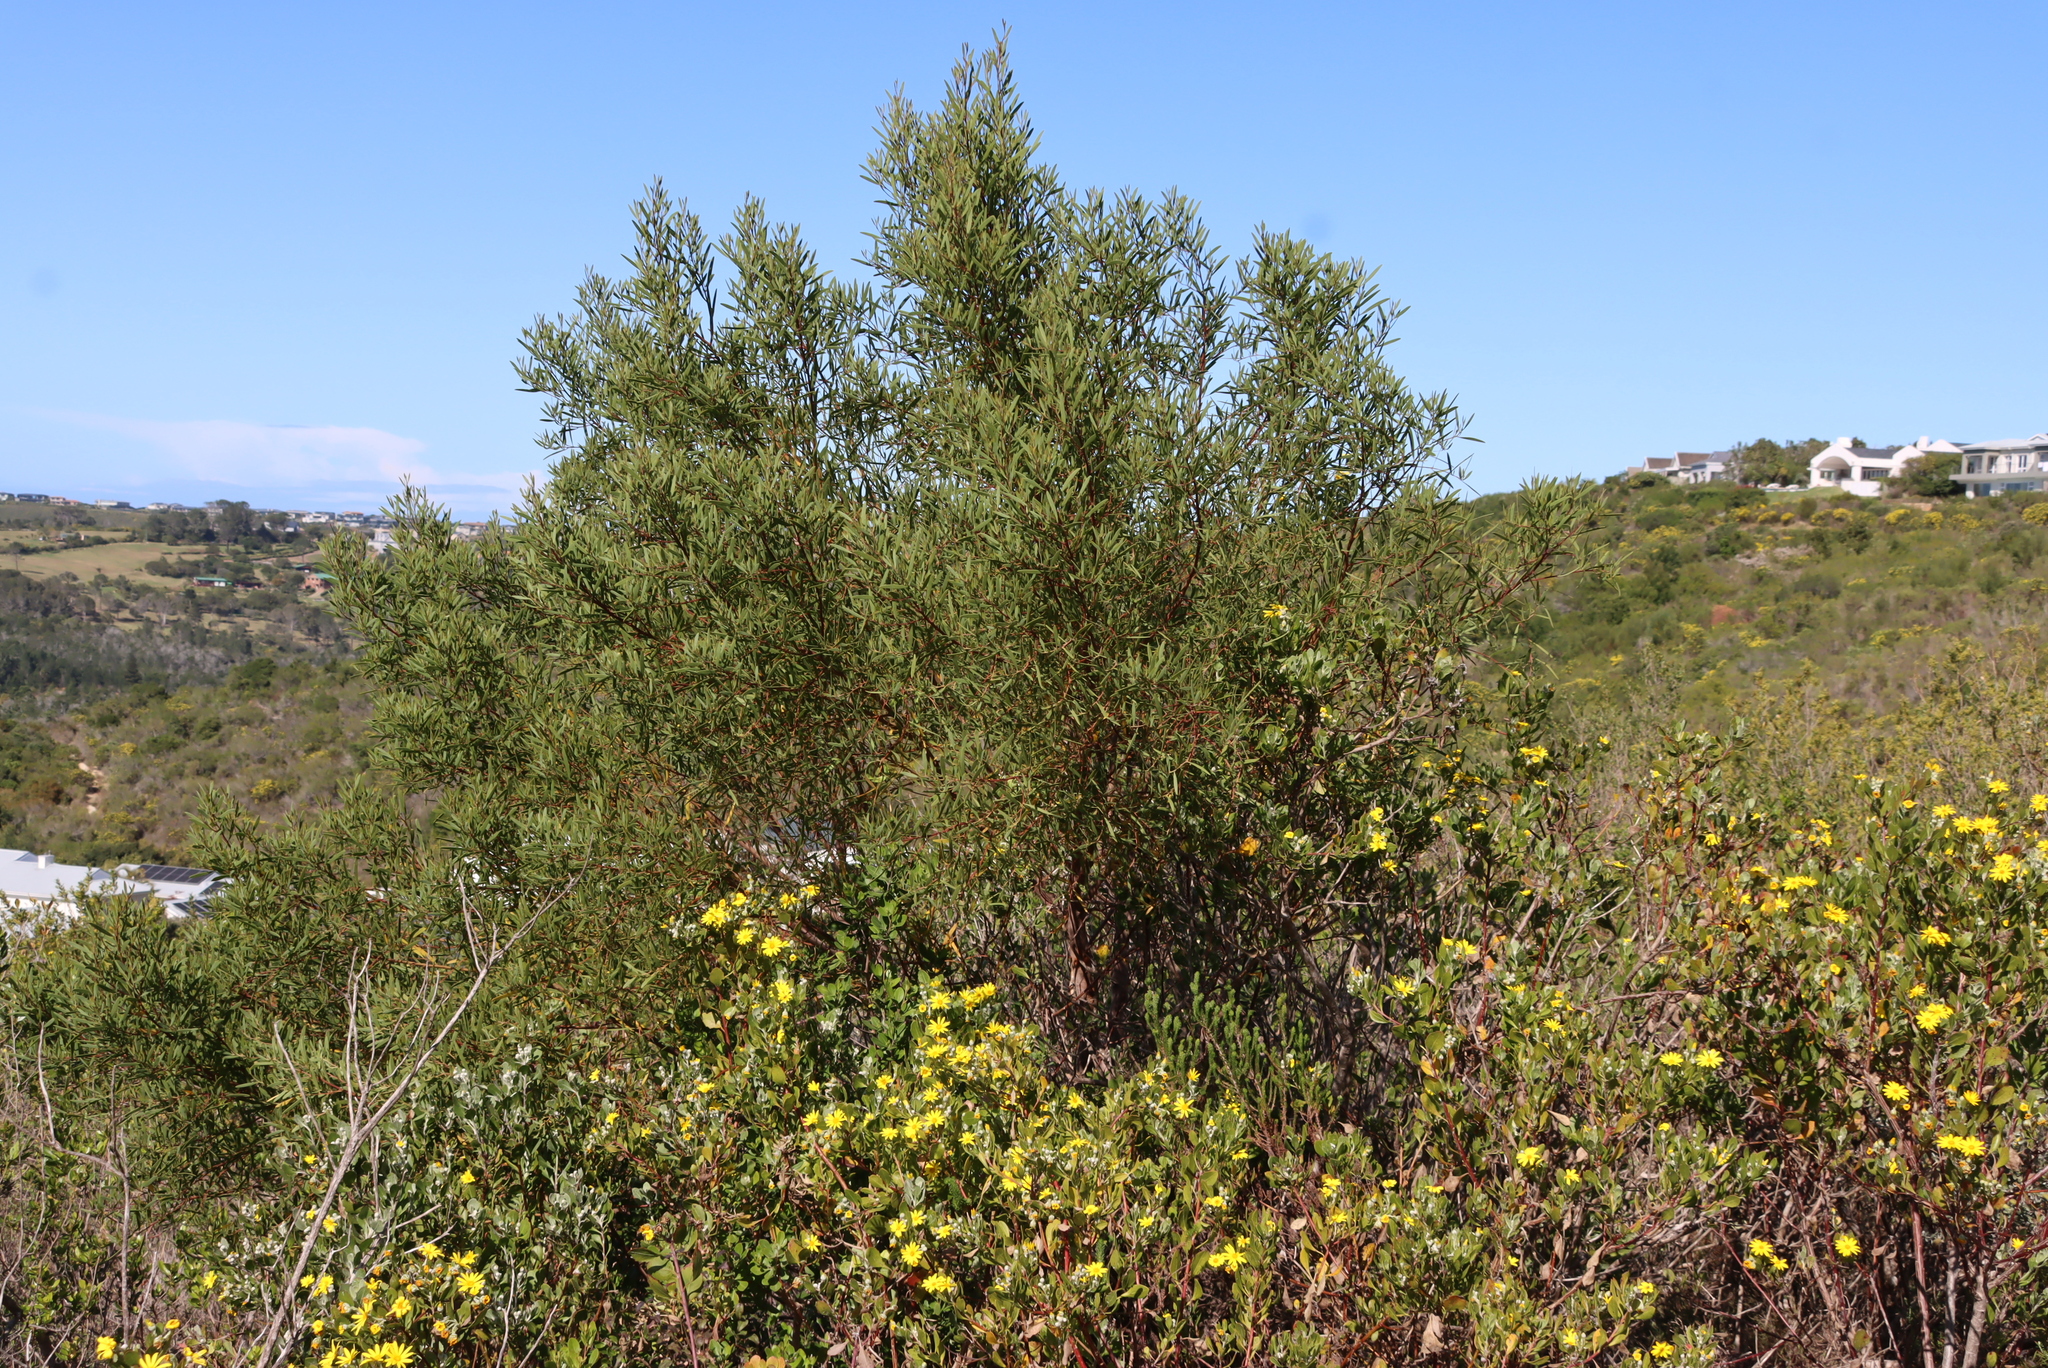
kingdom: Plantae
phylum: Tracheophyta
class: Magnoliopsida
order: Fabales
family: Fabaceae
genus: Acacia
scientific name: Acacia cyclops
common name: Coastal wattle
